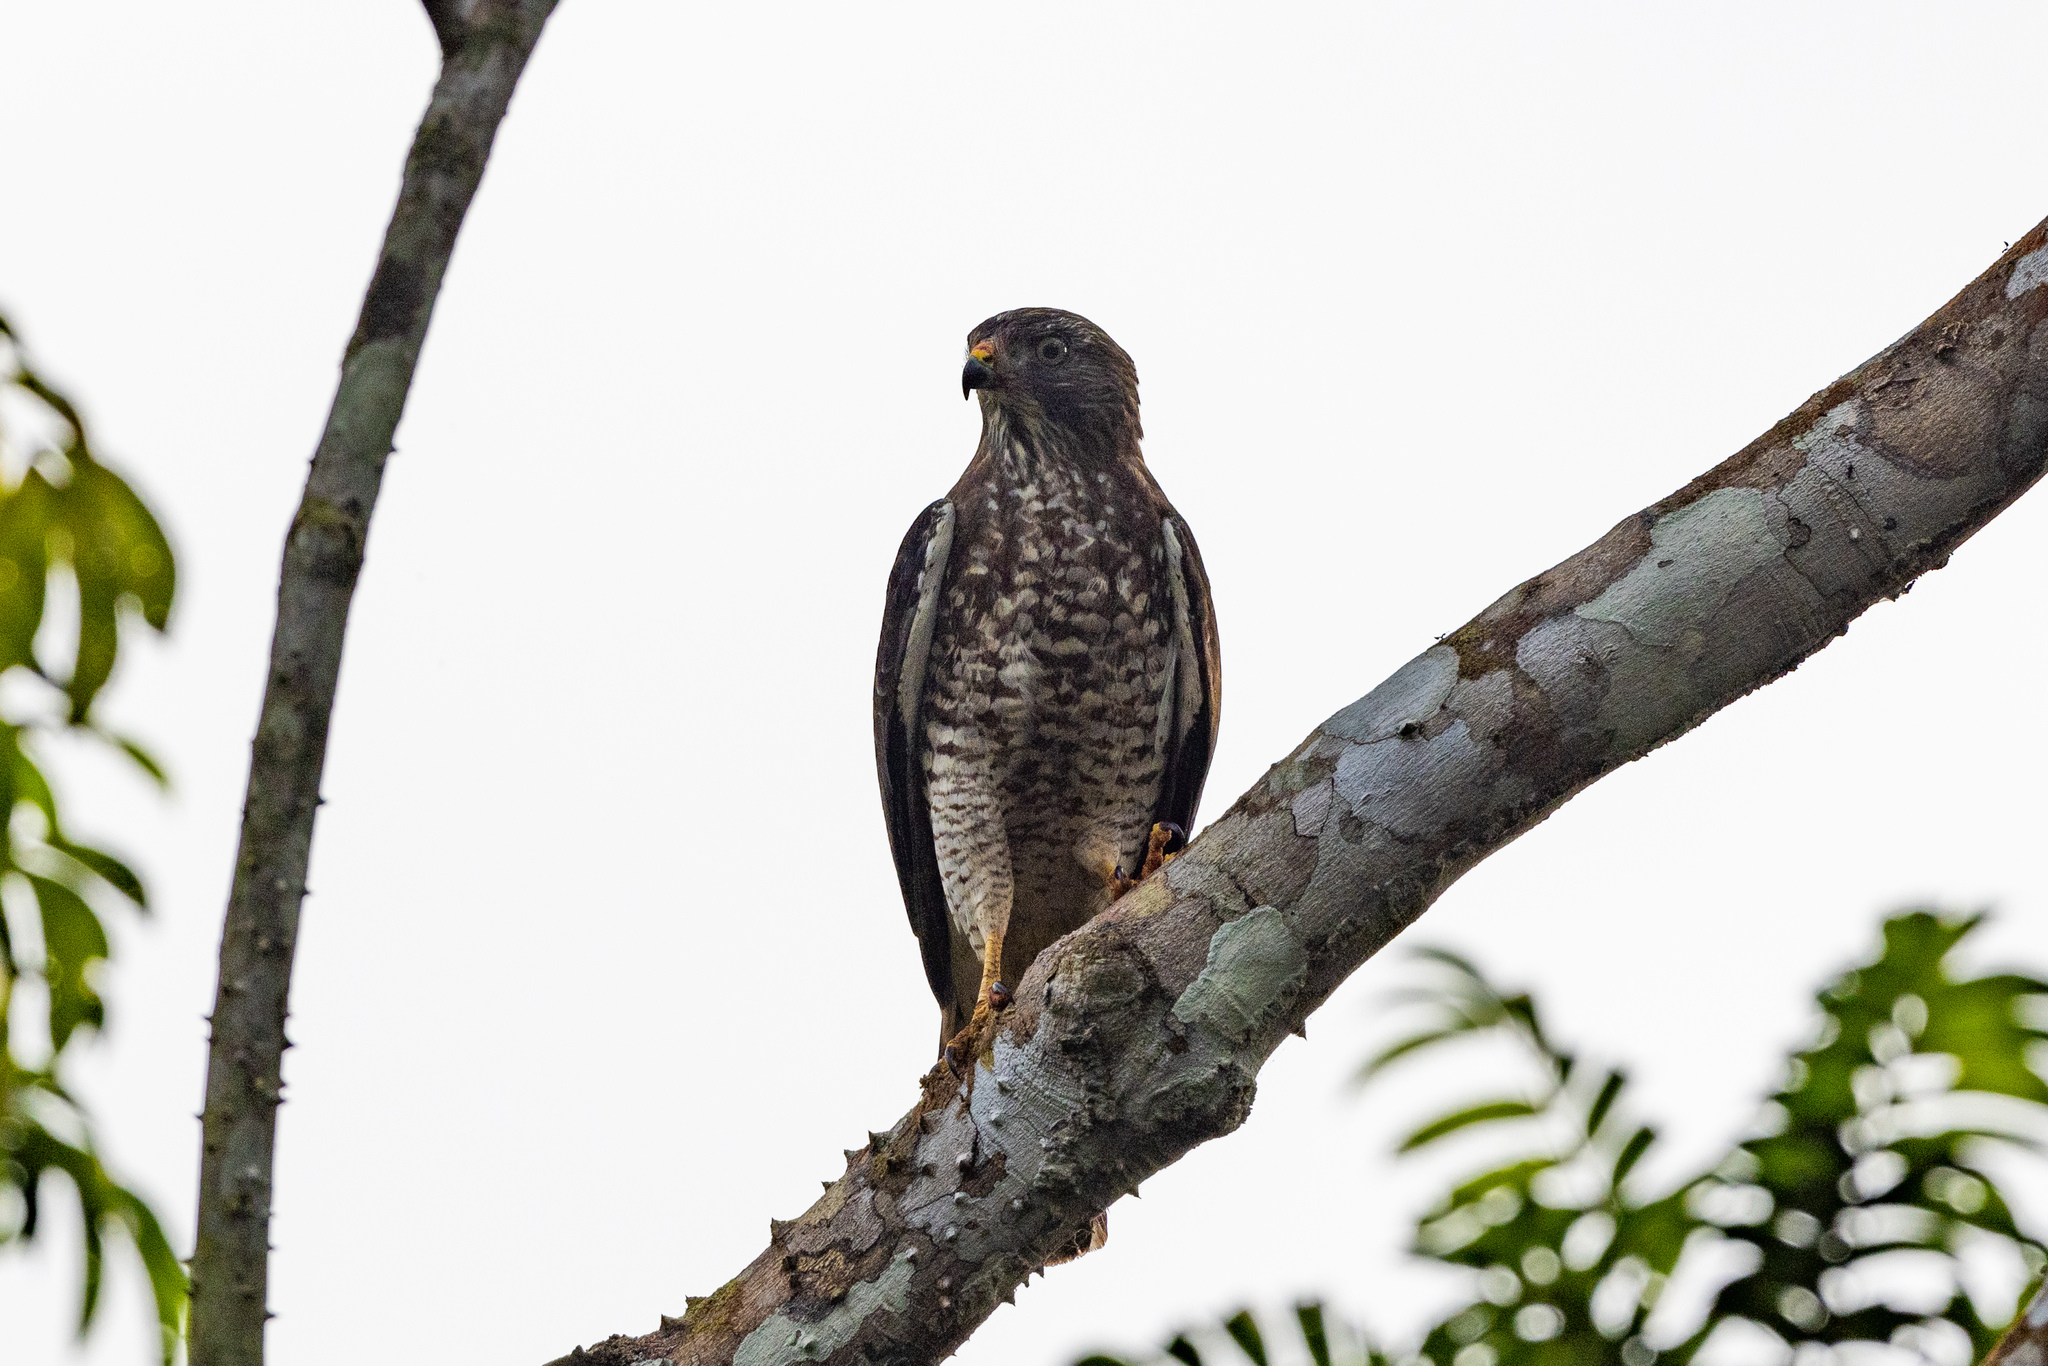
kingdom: Animalia
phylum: Chordata
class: Aves
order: Accipitriformes
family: Accipitridae
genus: Buteo
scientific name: Buteo platypterus
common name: Broad-winged hawk
